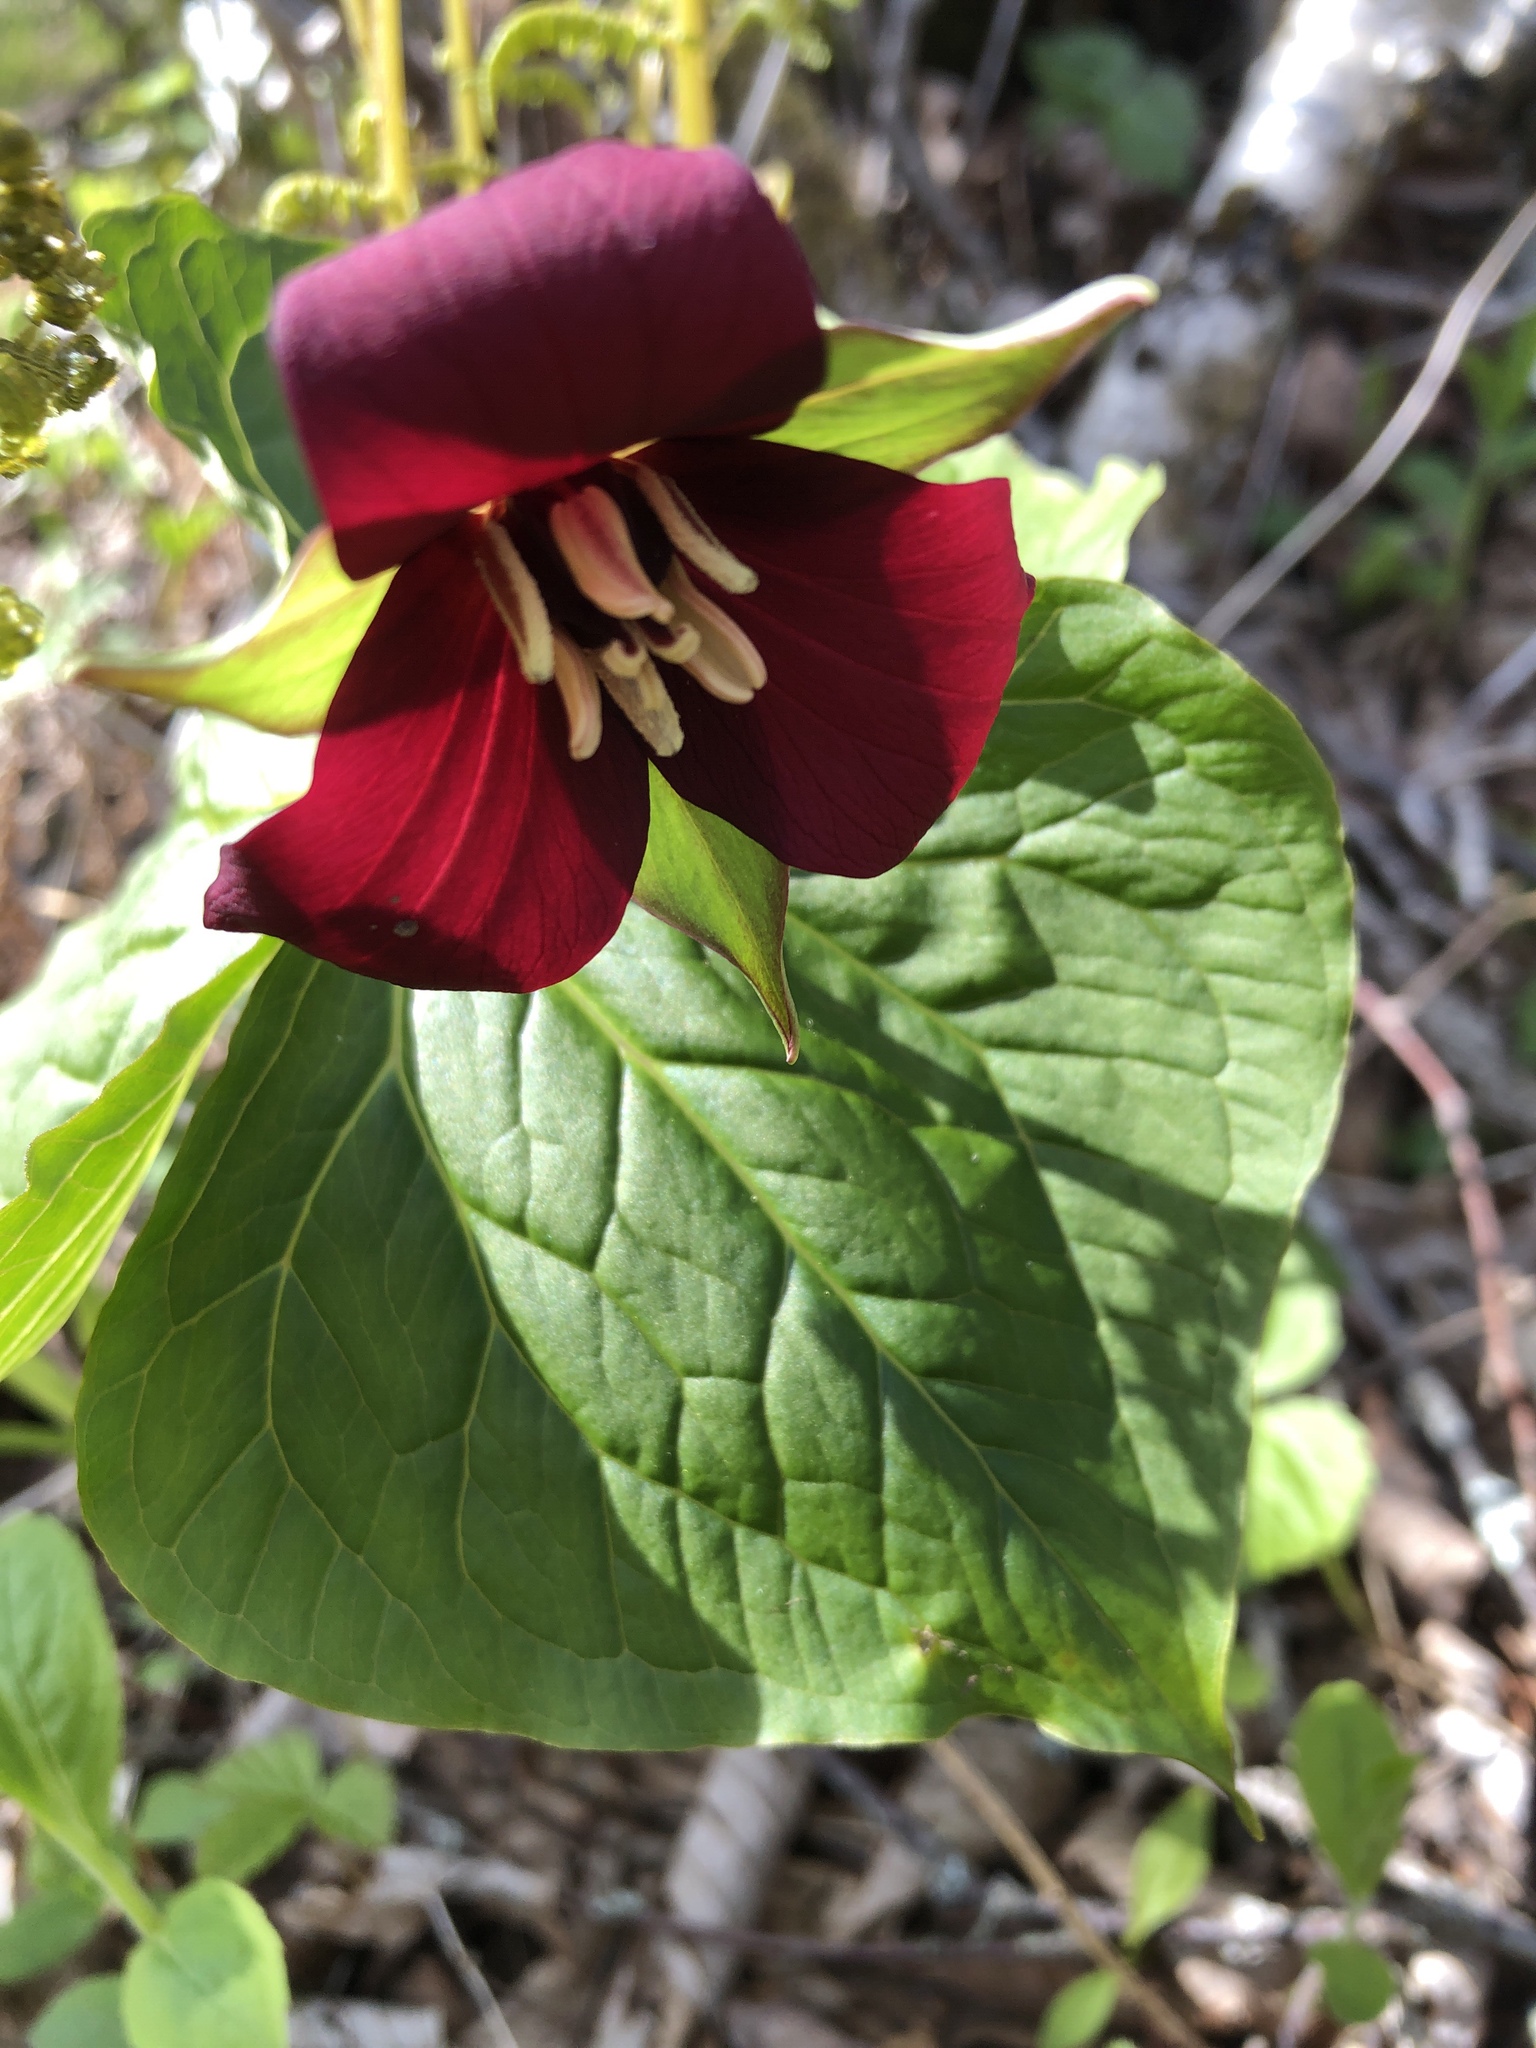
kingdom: Plantae
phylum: Tracheophyta
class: Liliopsida
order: Liliales
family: Melanthiaceae
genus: Trillium
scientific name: Trillium erectum
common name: Purple trillium
